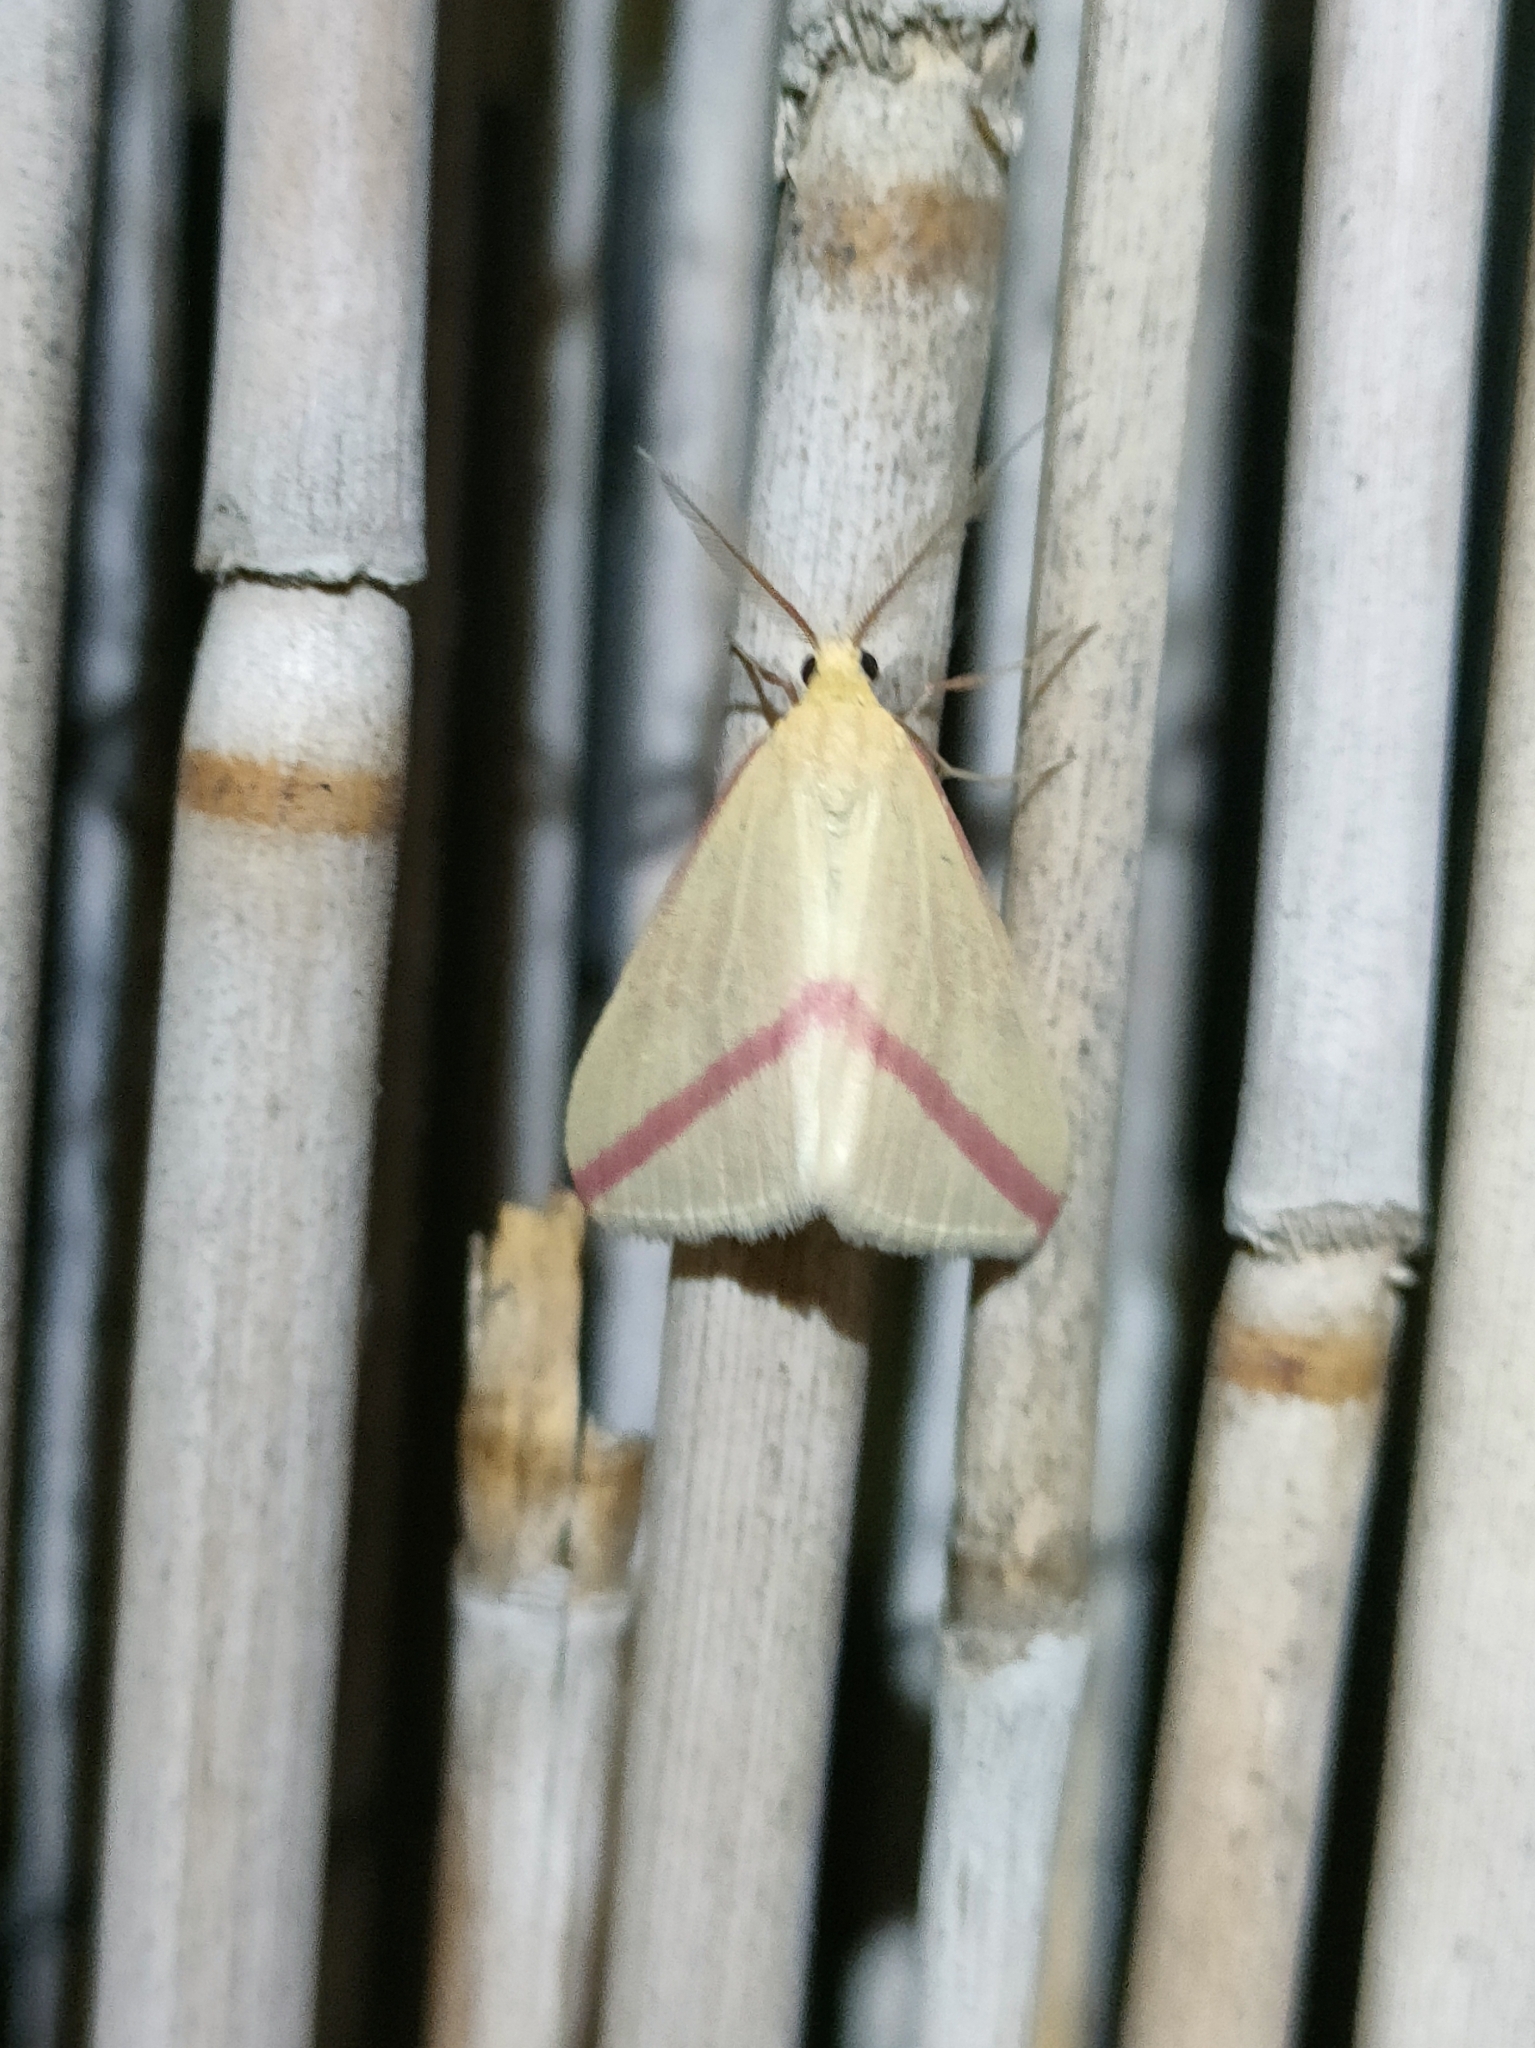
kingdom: Animalia
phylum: Arthropoda
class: Insecta
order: Lepidoptera
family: Geometridae
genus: Rhodometra
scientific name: Rhodometra sacraria
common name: Vestal
